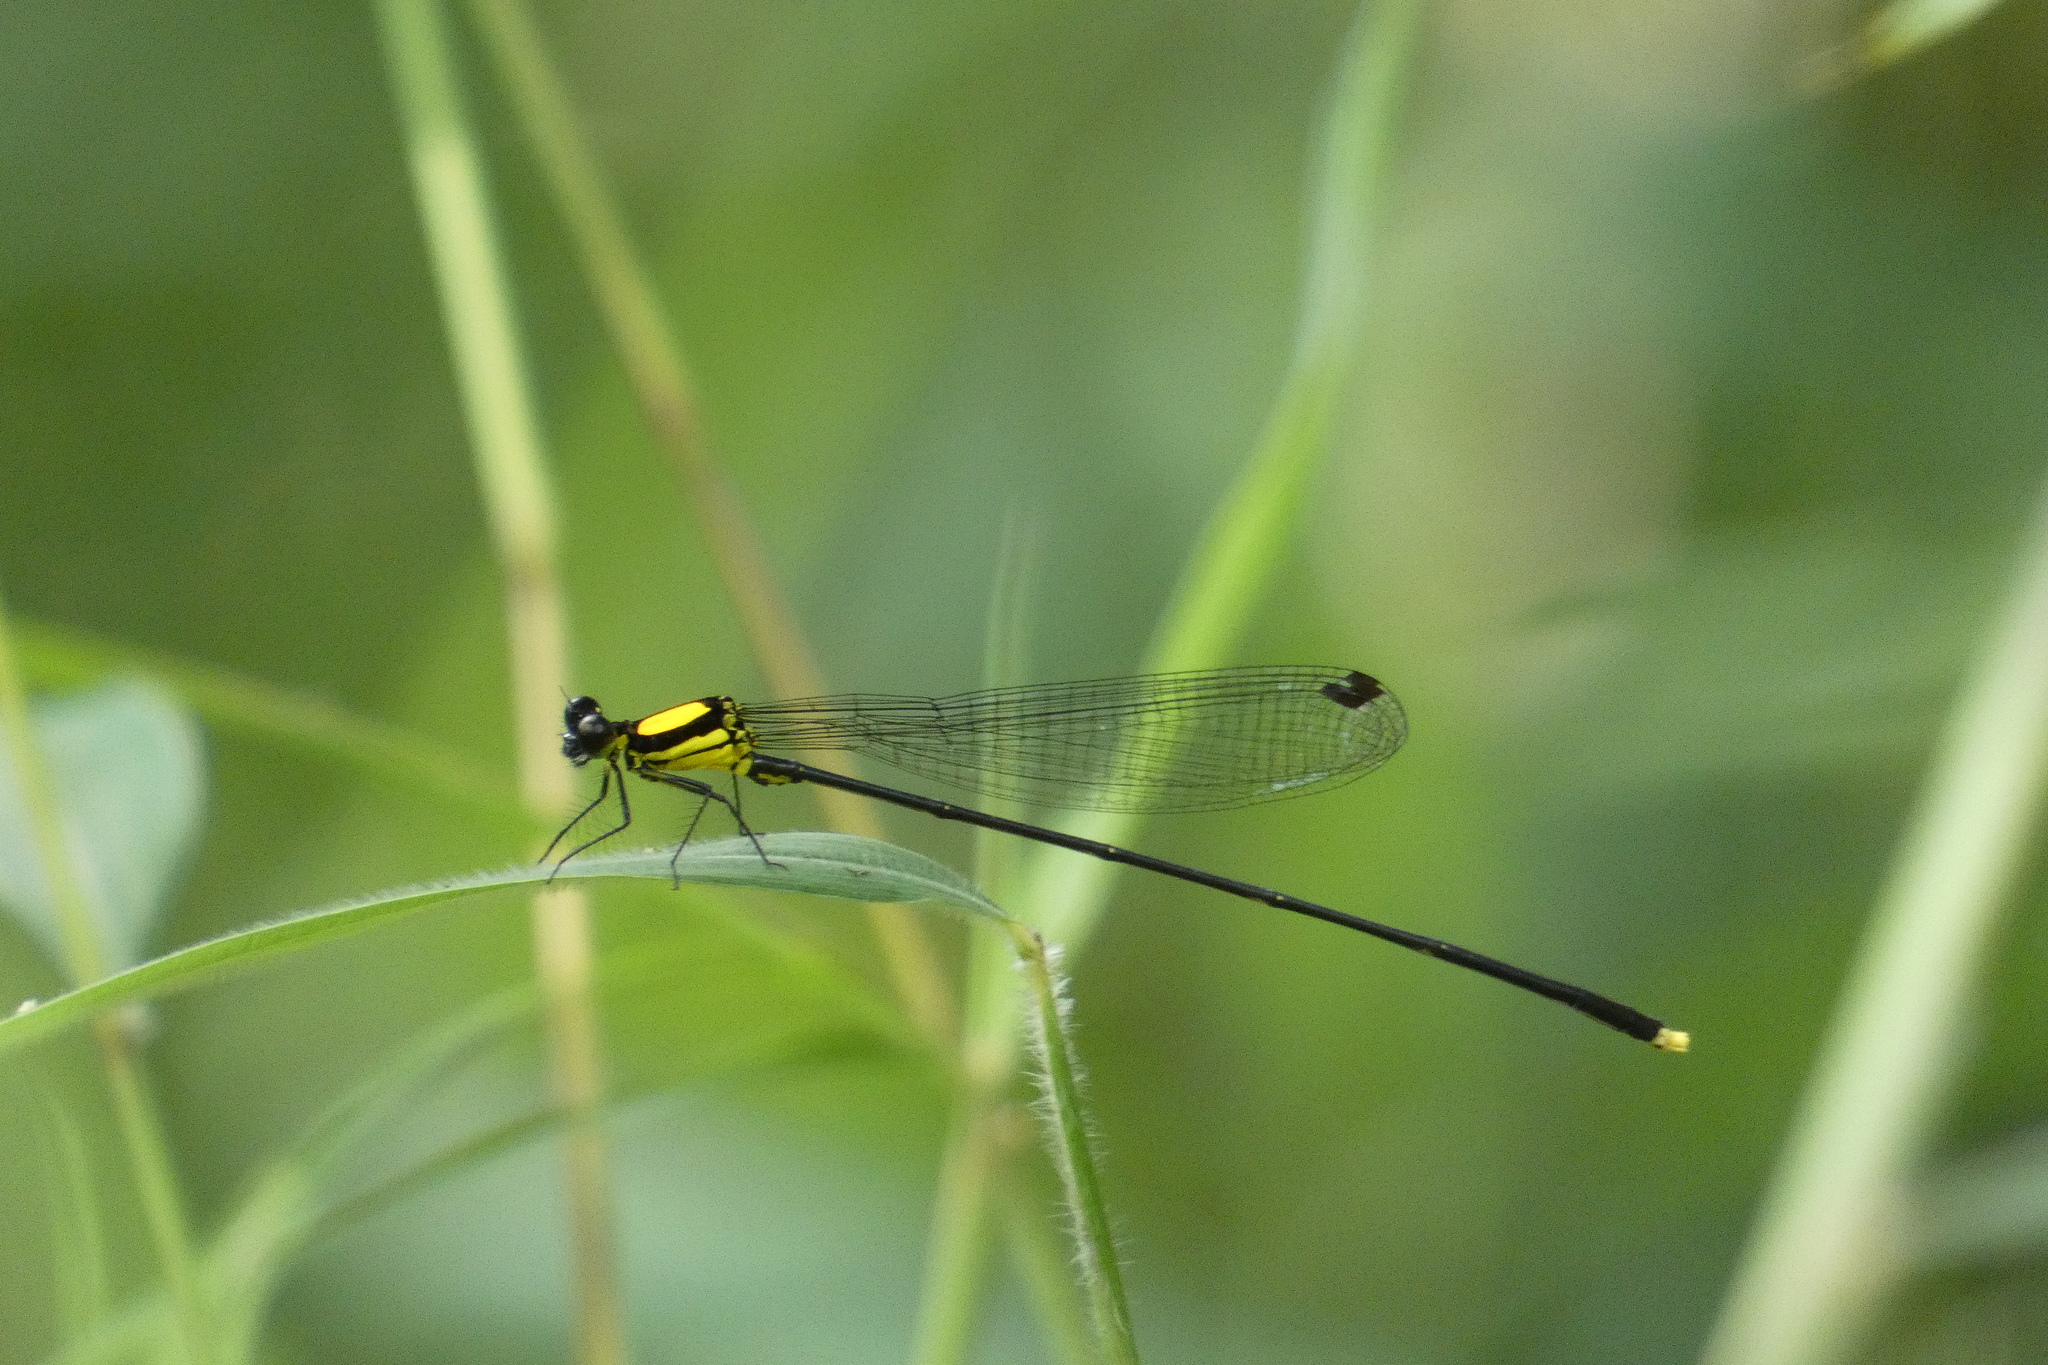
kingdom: Animalia
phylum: Arthropoda
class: Insecta
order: Odonata
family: Platycnemididae
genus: Coeliccia
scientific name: Coeliccia chromothorax
